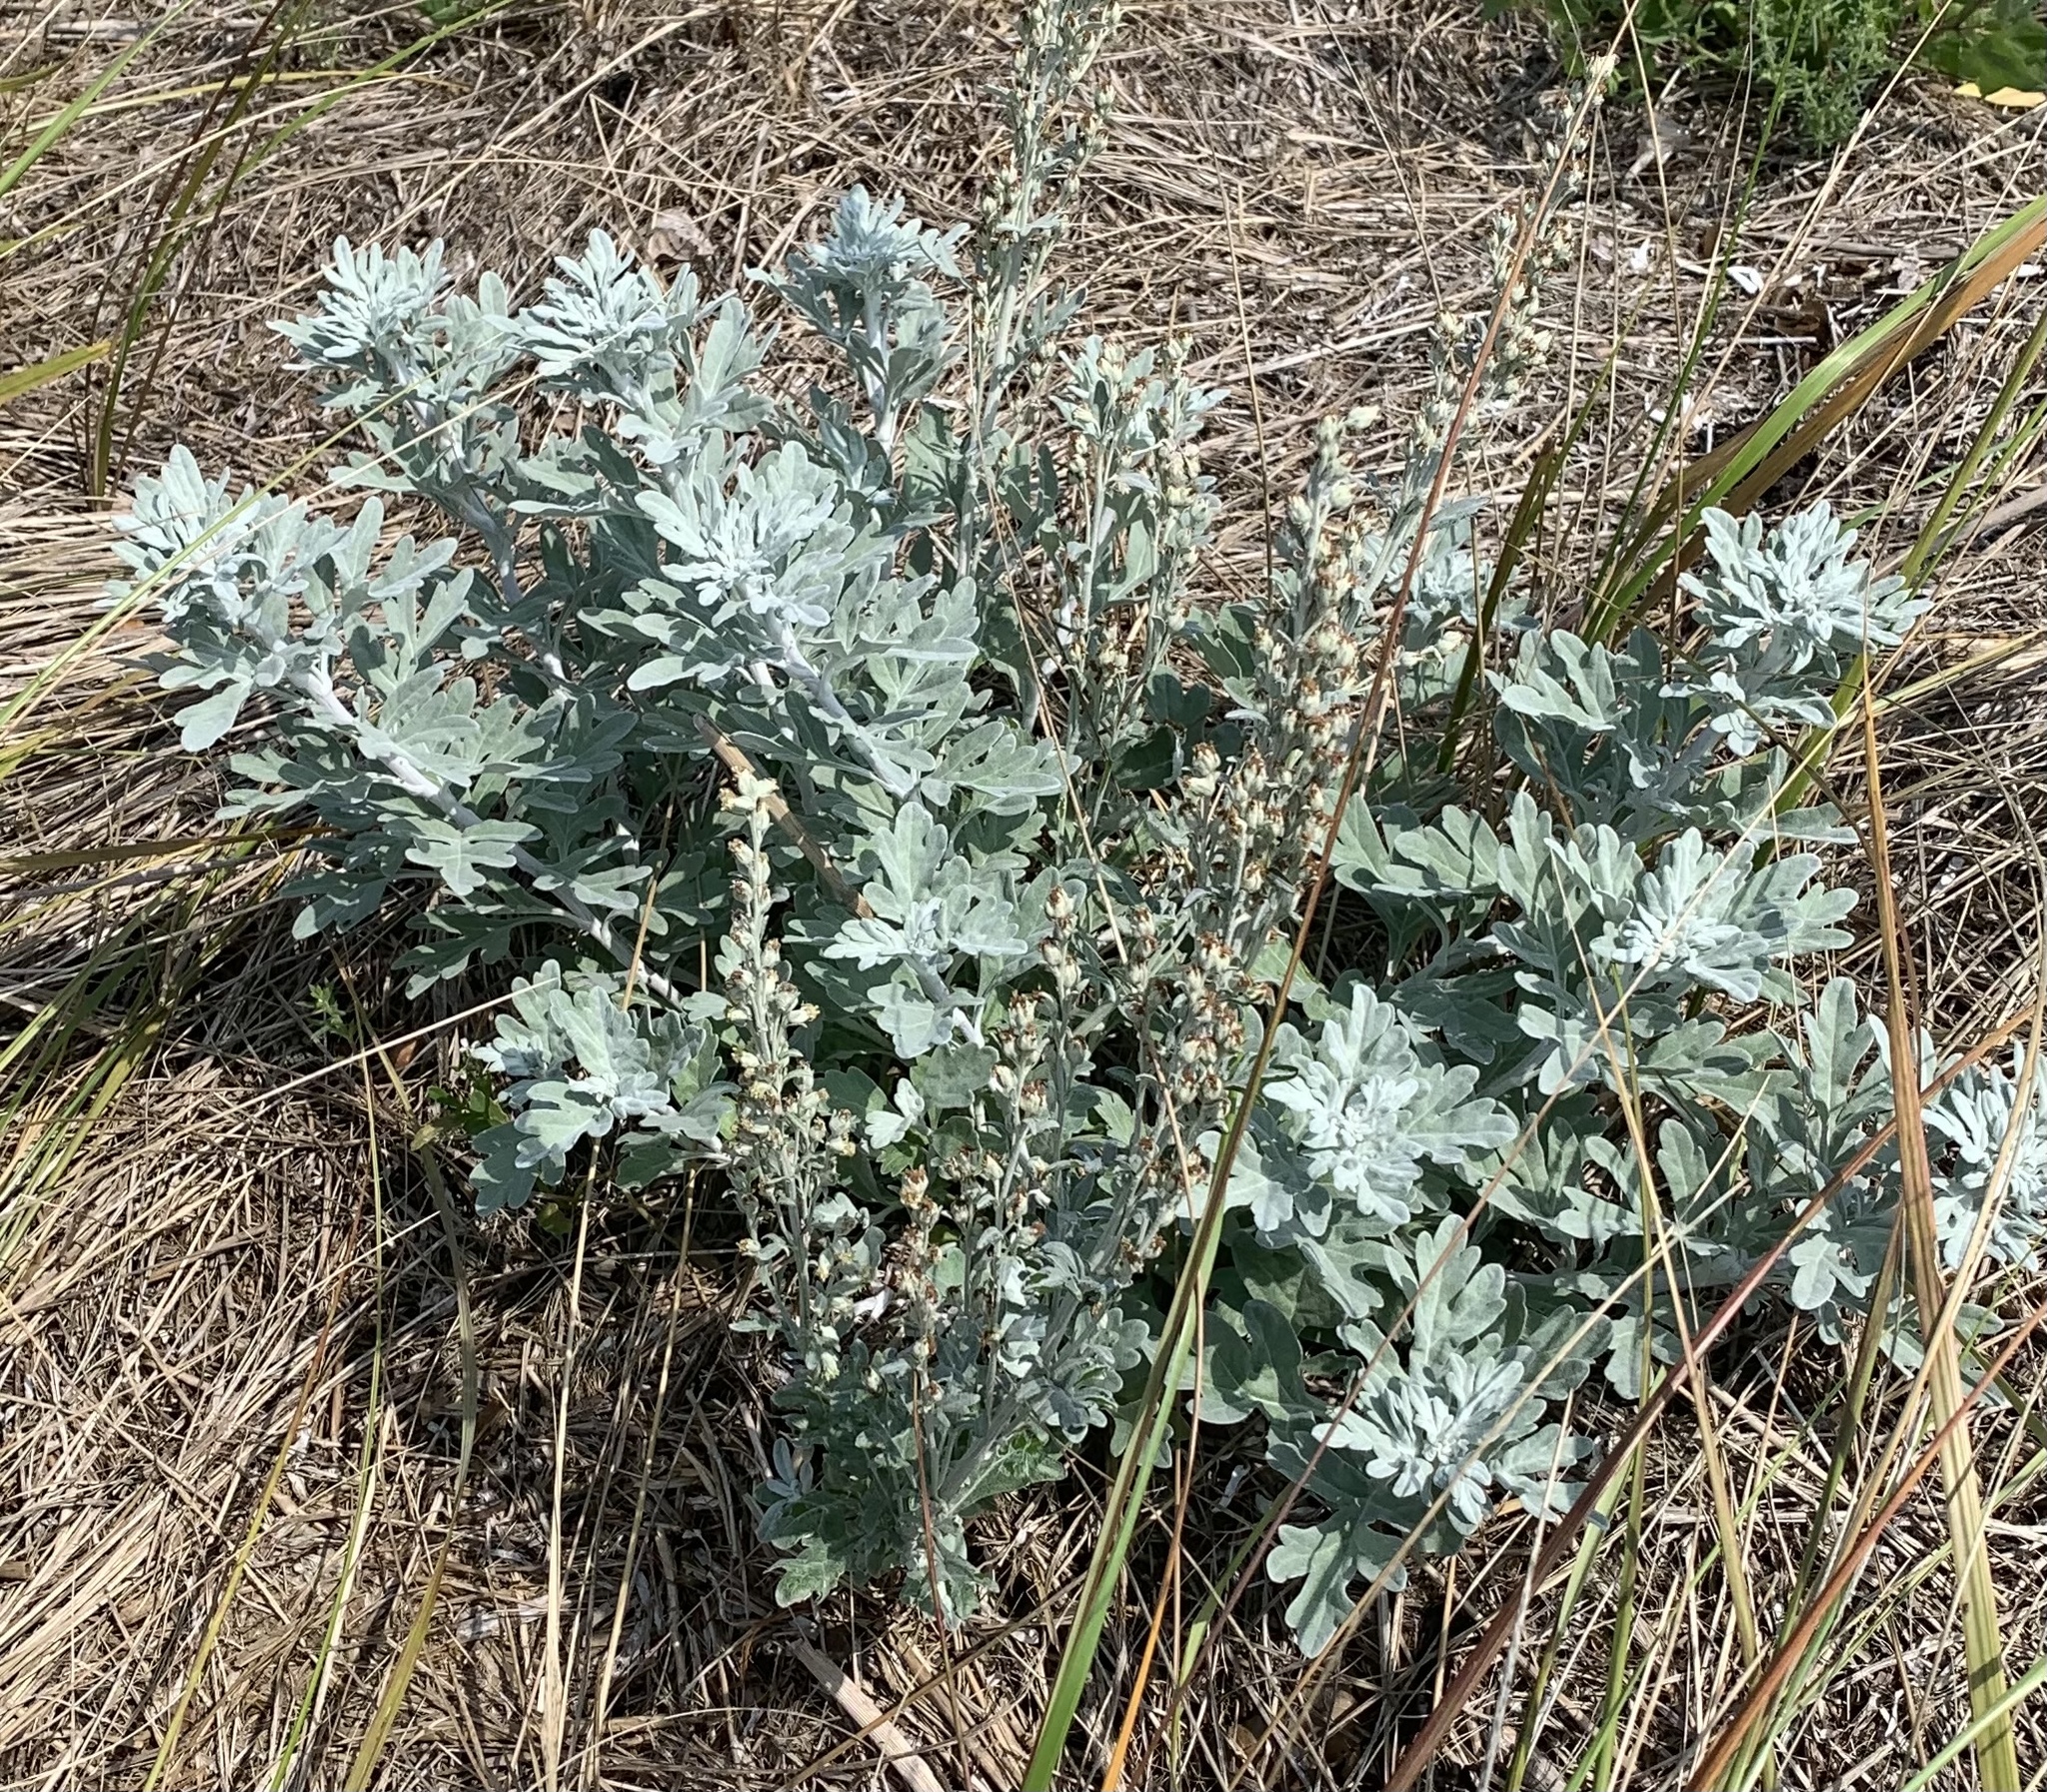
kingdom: Plantae
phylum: Tracheophyta
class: Magnoliopsida
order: Asterales
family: Asteraceae
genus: Artemisia
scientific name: Artemisia stelleriana
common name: Beach wormwood
